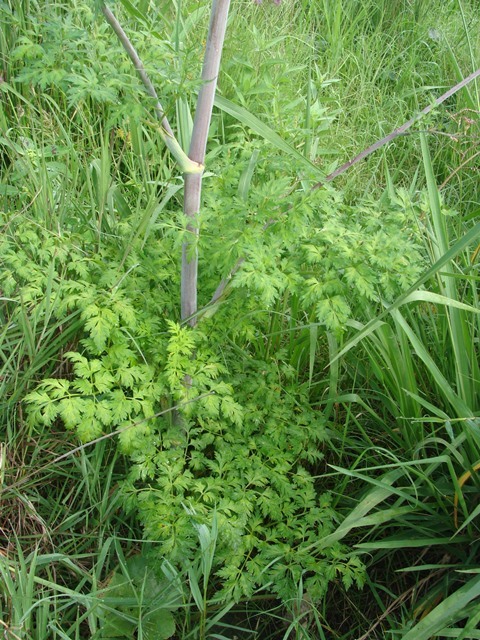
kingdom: Plantae
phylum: Tracheophyta
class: Magnoliopsida
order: Apiales
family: Apiaceae
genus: Arracacia
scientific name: Arracacia atropurpurea
